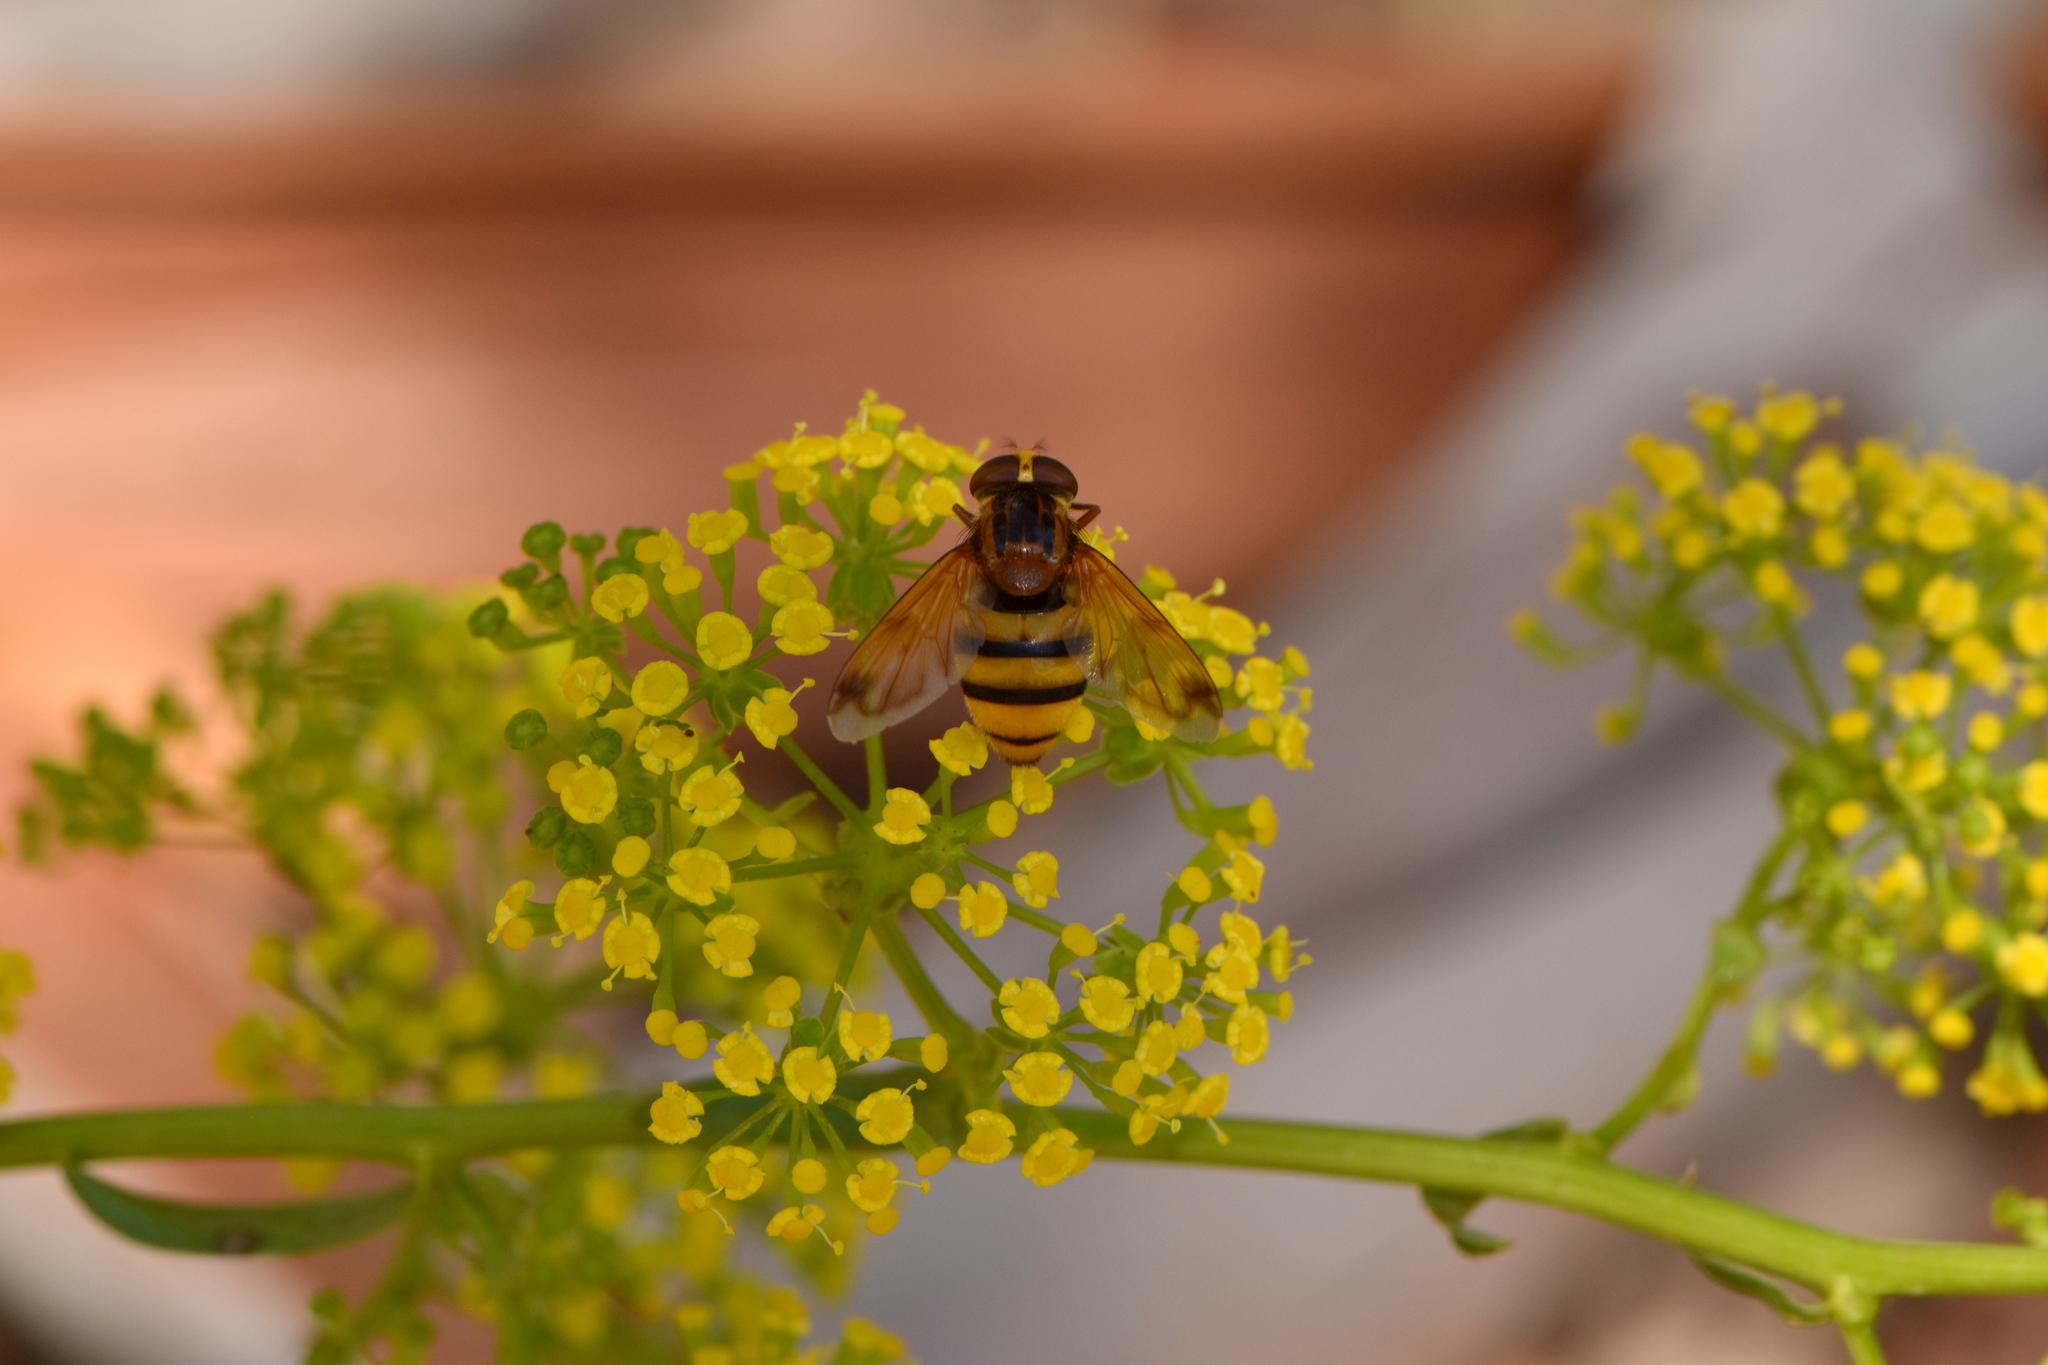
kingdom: Animalia
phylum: Arthropoda
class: Insecta
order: Diptera
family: Syrphidae
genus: Volucella
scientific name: Volucella inanis
